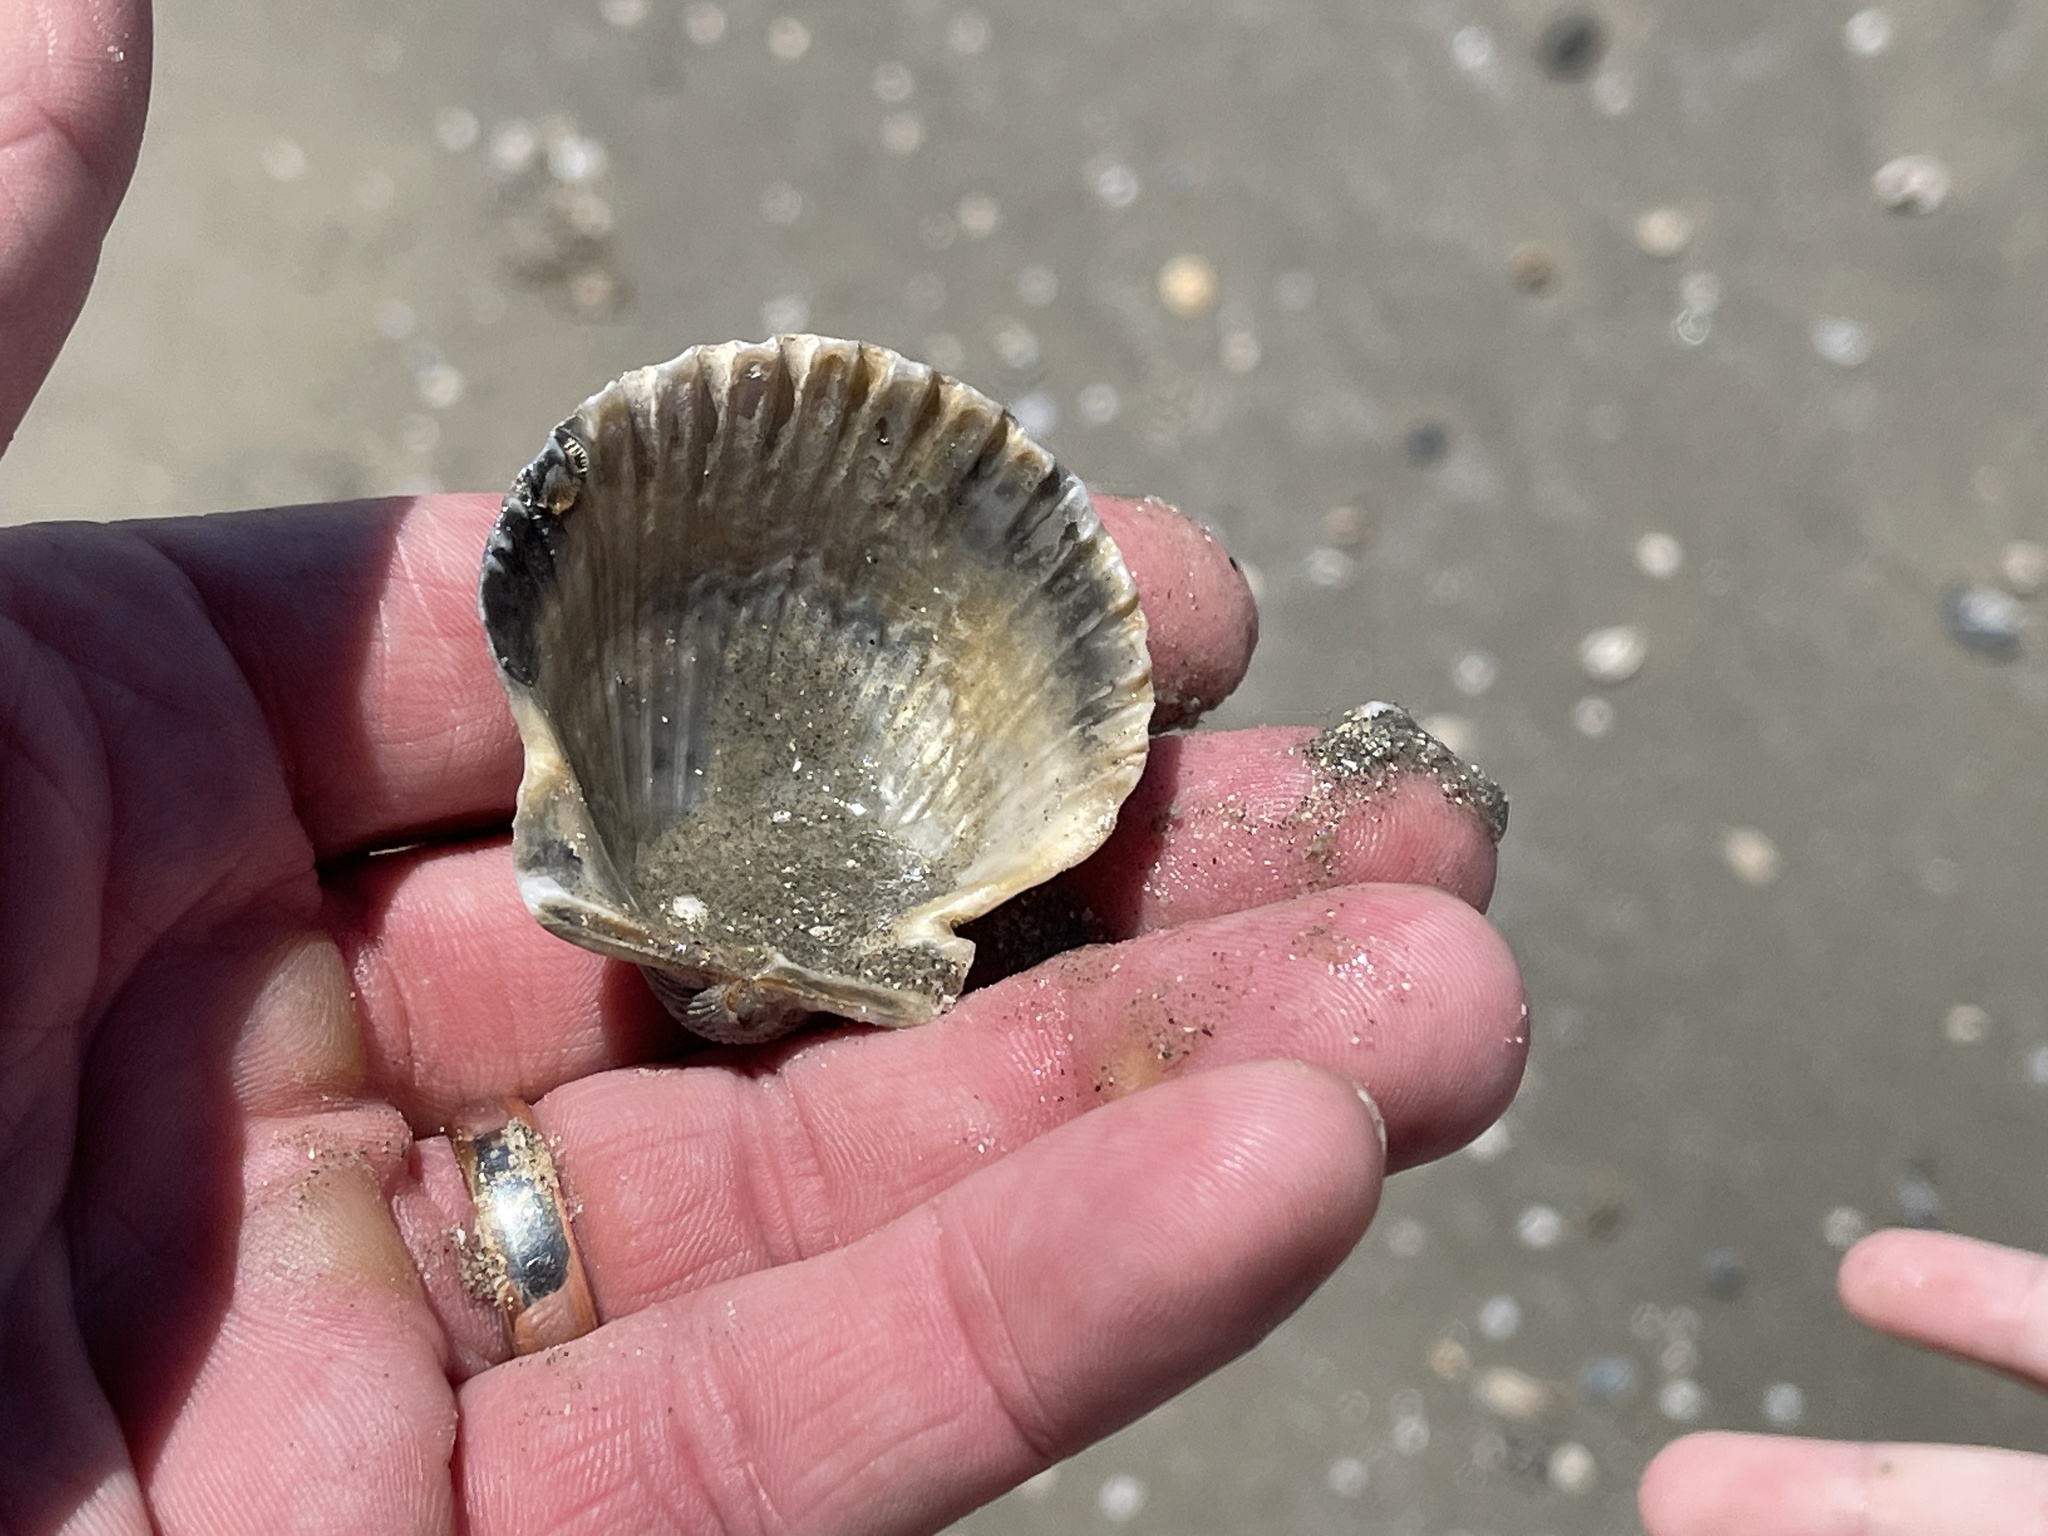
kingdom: Animalia
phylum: Mollusca
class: Bivalvia
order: Pectinida
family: Pectinidae
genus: Argopecten
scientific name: Argopecten irradians
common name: Atlantic bay scallop
